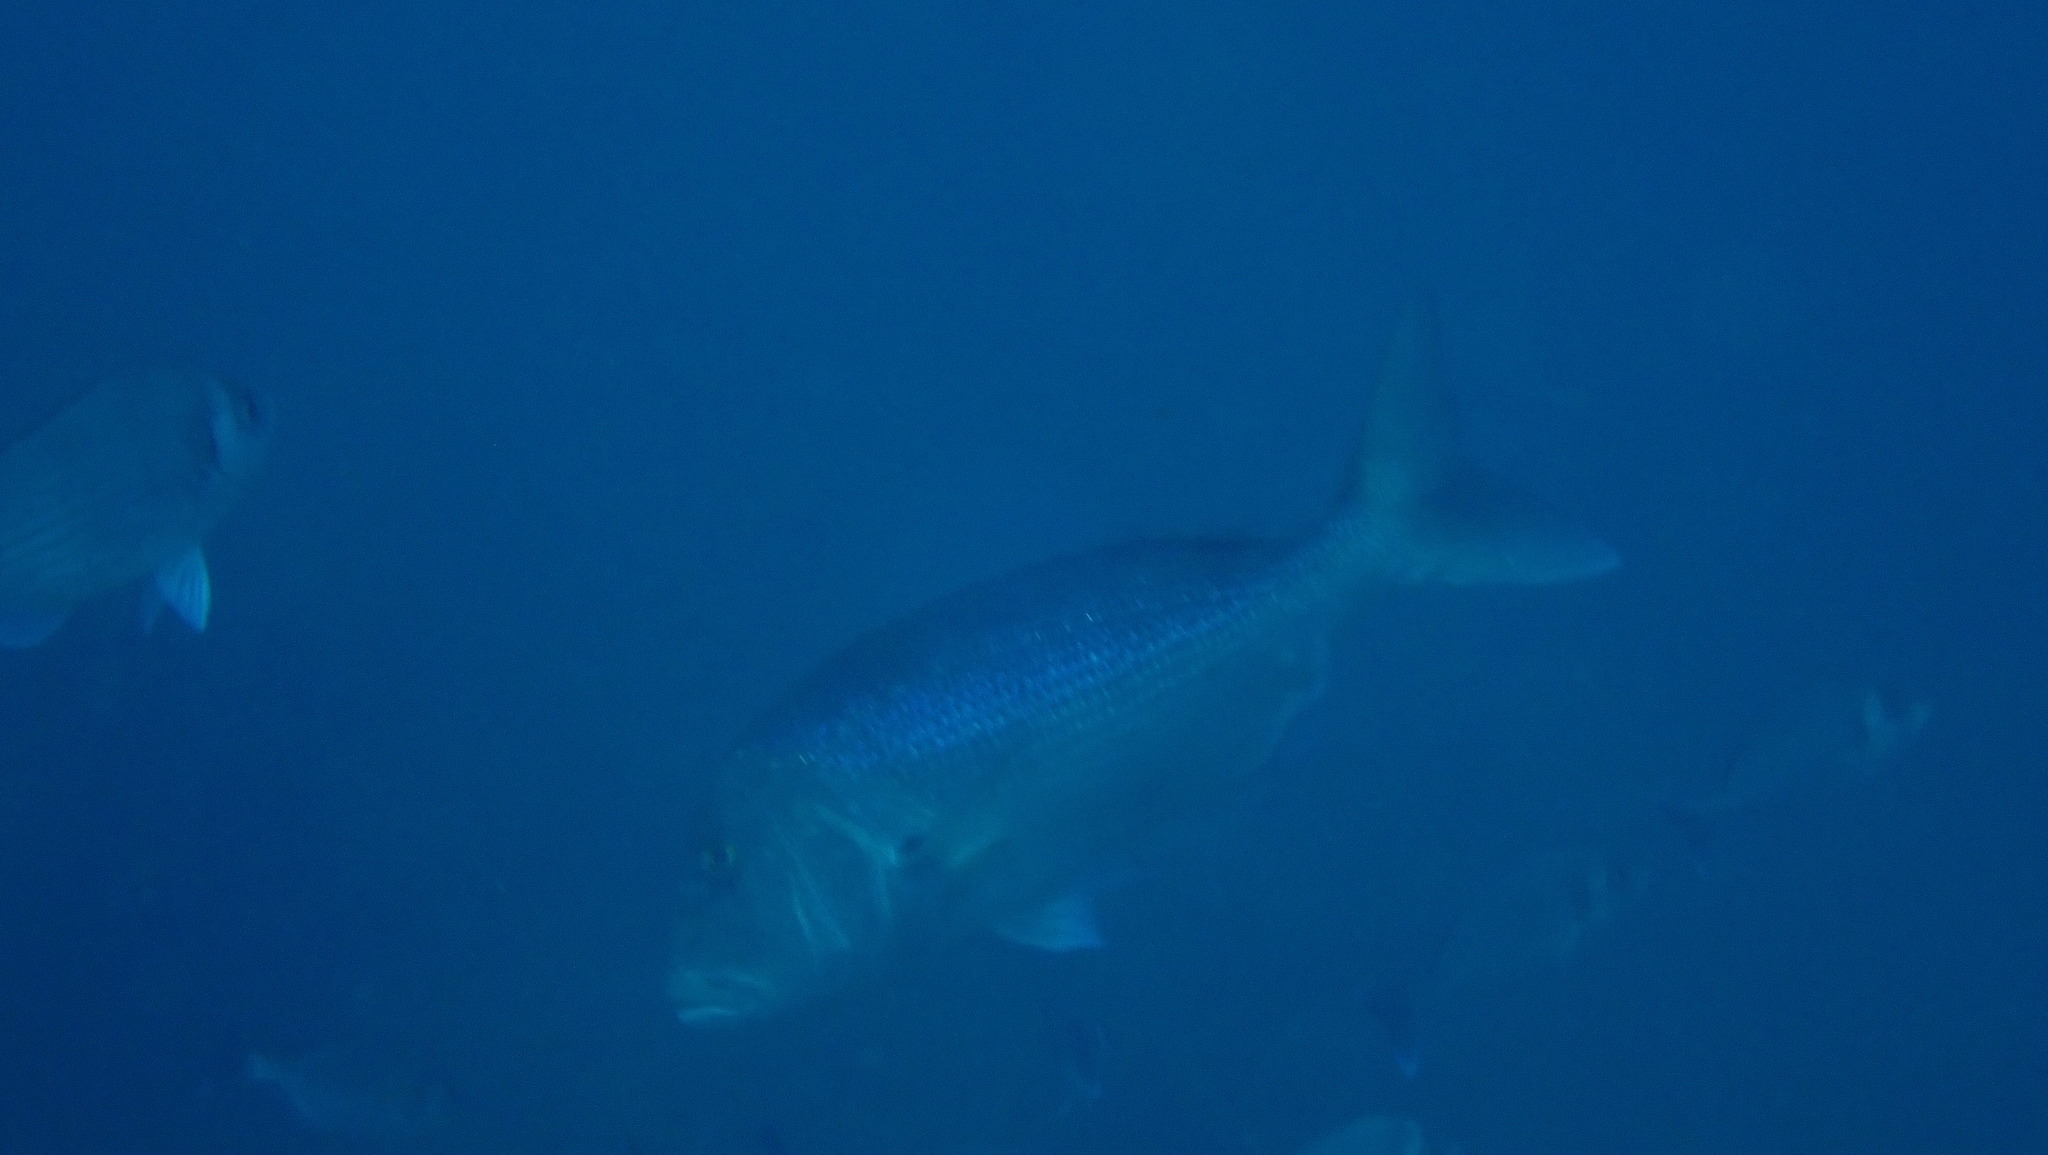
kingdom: Animalia
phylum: Chordata
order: Perciformes
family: Sparidae
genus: Dentex
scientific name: Dentex dentex
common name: Dentex
